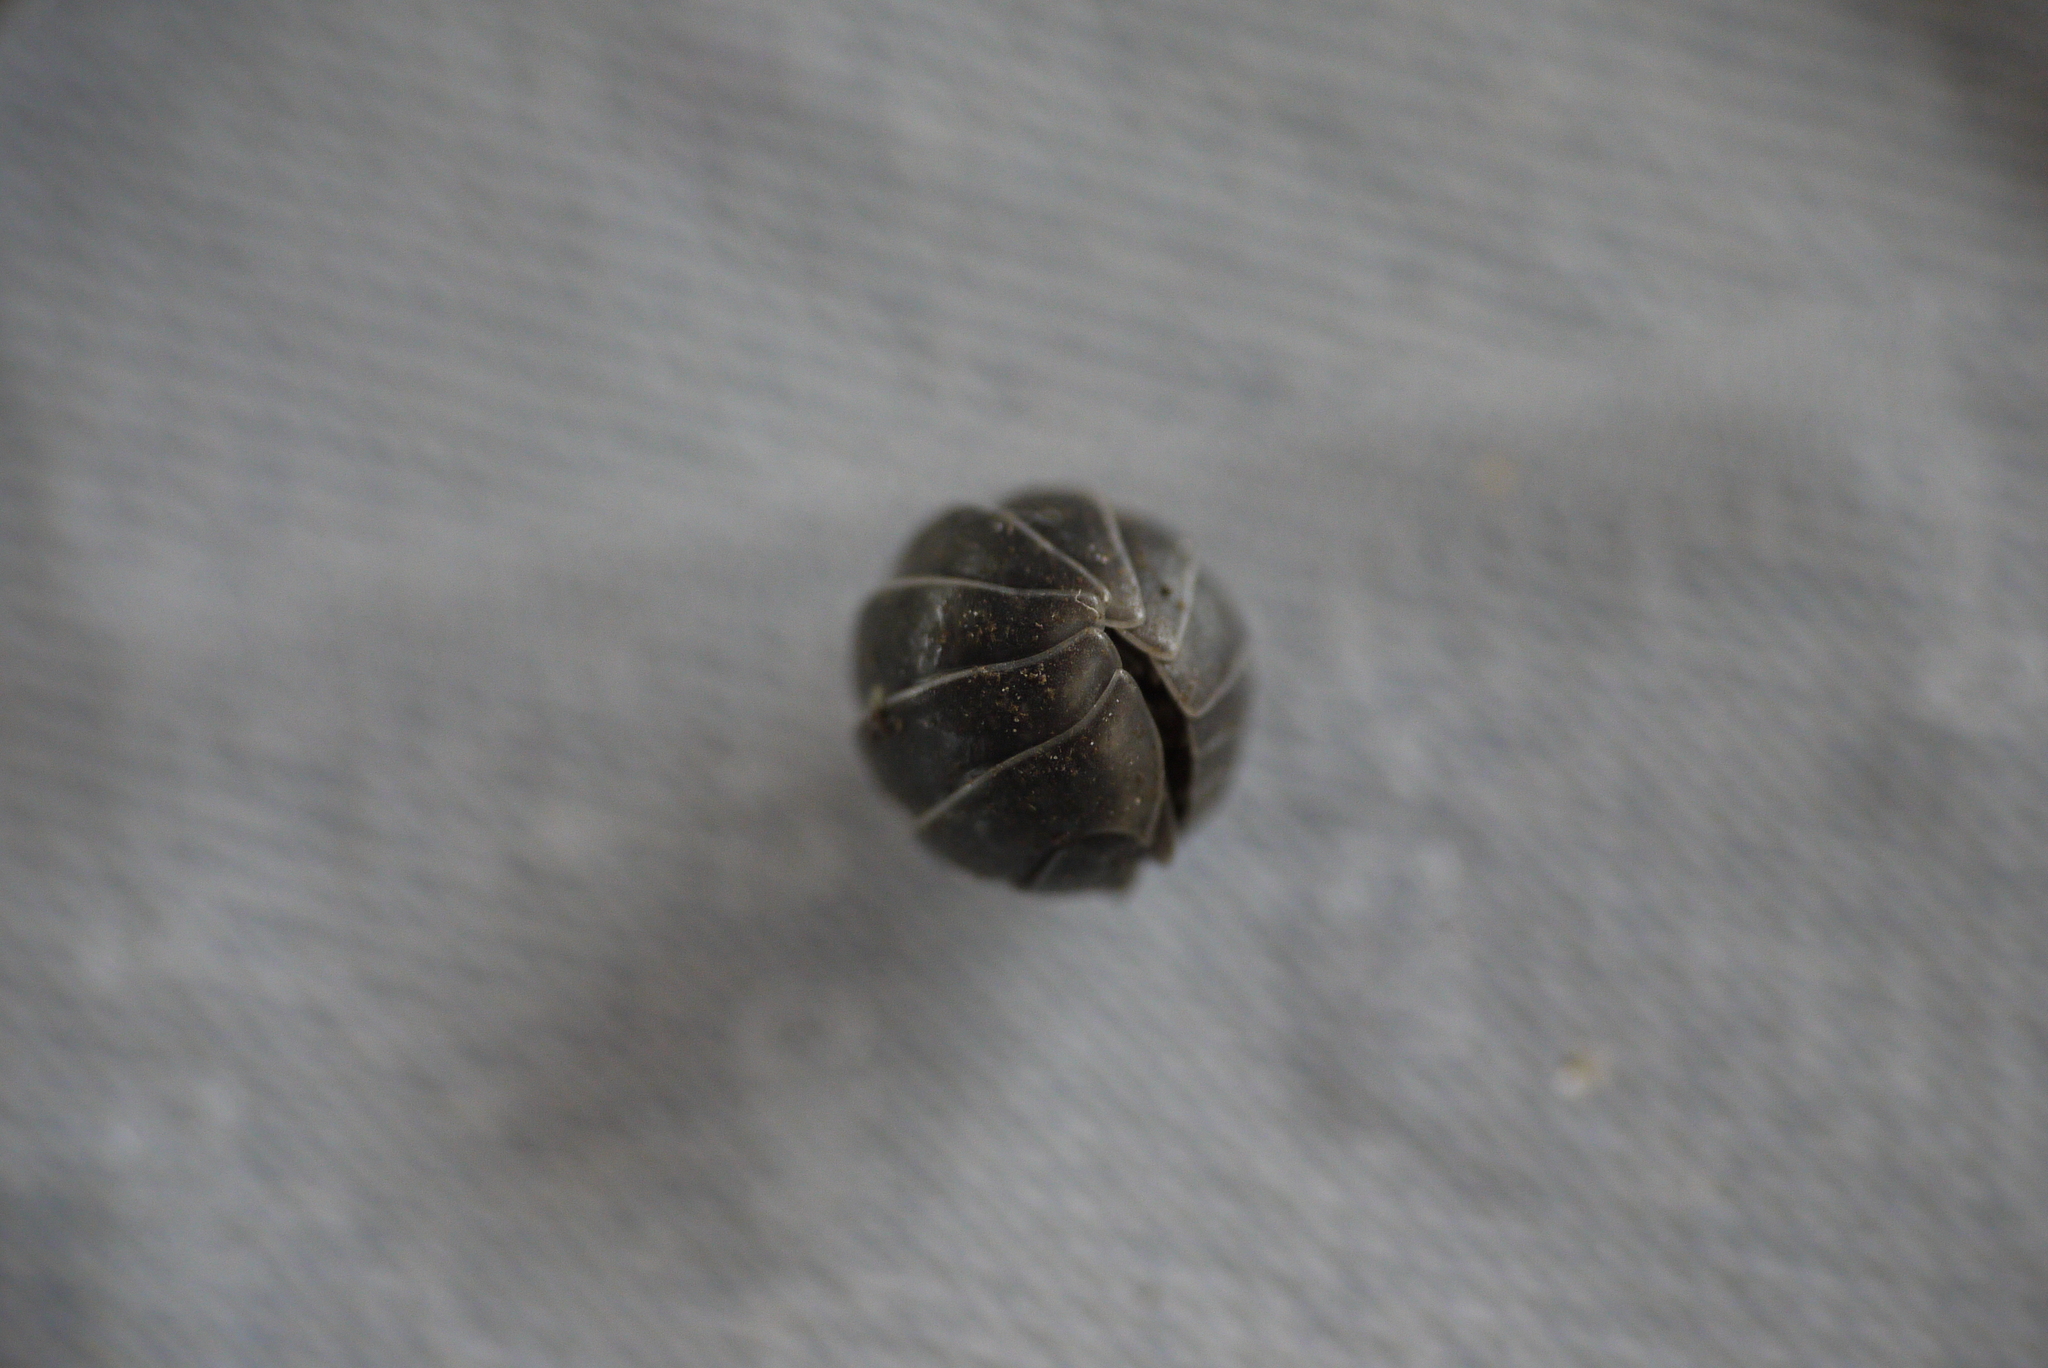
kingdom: Animalia
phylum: Arthropoda
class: Malacostraca
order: Isopoda
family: Armadillidiidae
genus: Armadillidium
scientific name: Armadillidium vulgare
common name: Common pill woodlouse
